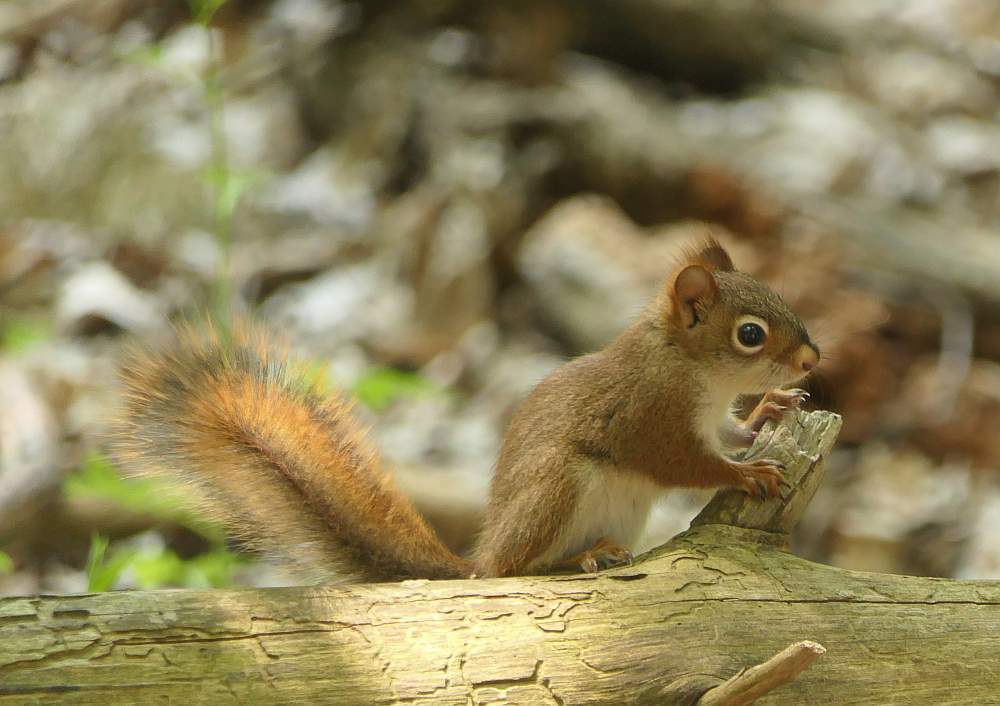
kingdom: Animalia
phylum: Chordata
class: Mammalia
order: Rodentia
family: Sciuridae
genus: Tamiasciurus
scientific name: Tamiasciurus hudsonicus
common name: Red squirrel
